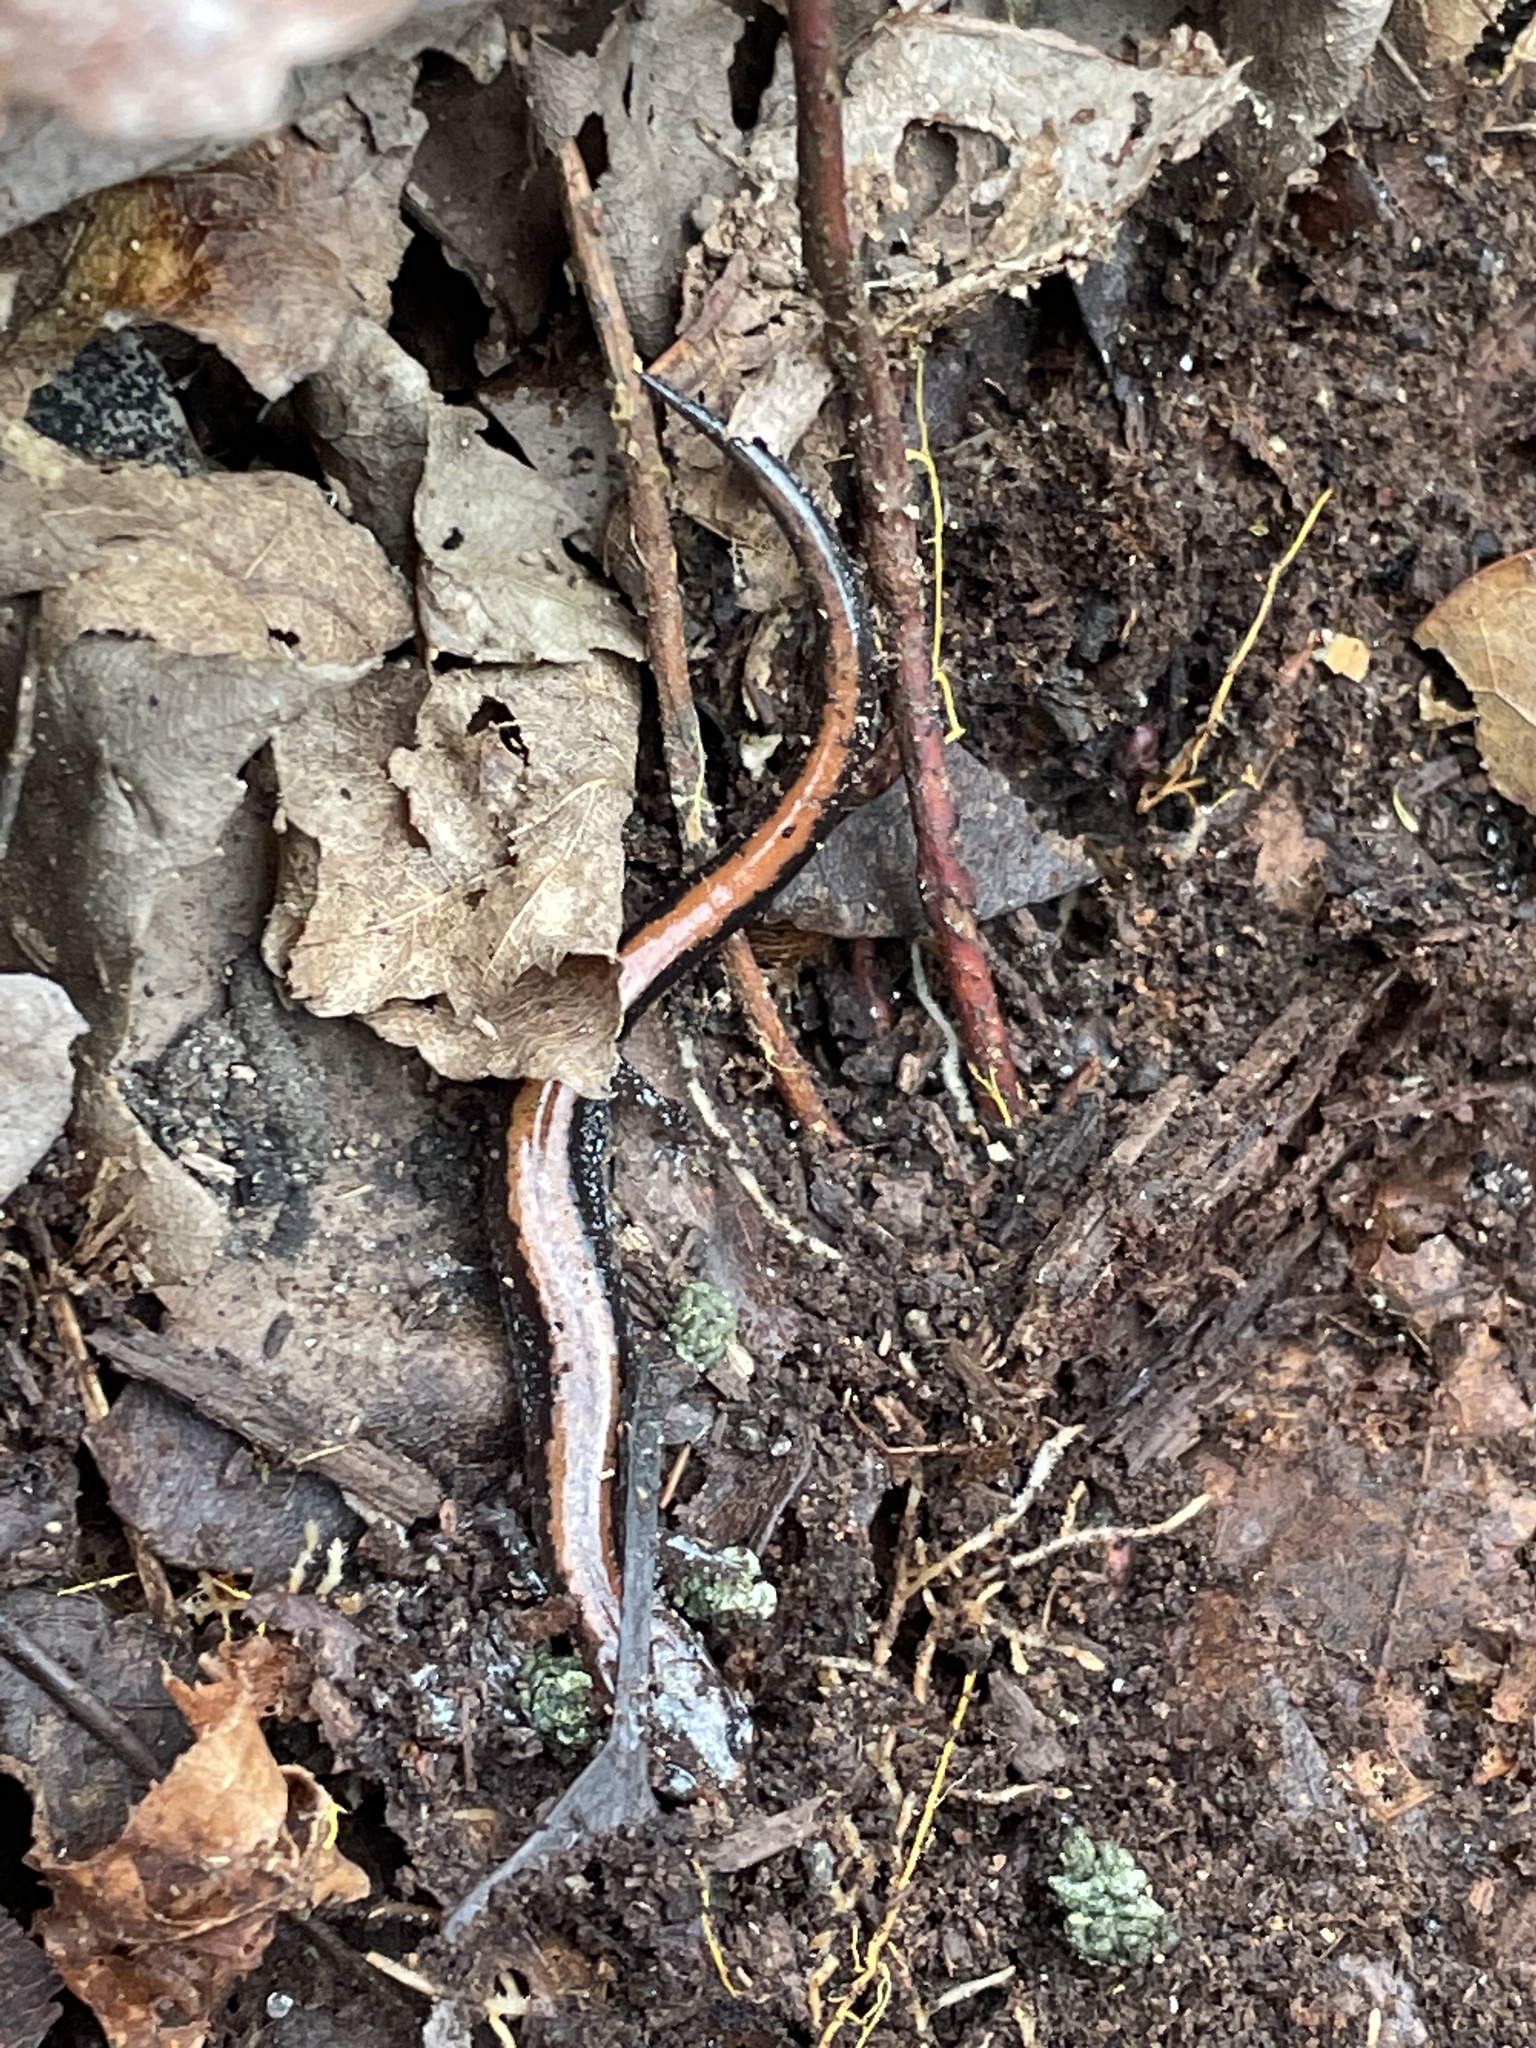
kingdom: Animalia
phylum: Chordata
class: Amphibia
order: Caudata
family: Plethodontidae
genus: Plethodon
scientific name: Plethodon cinereus
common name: Redback salamander
